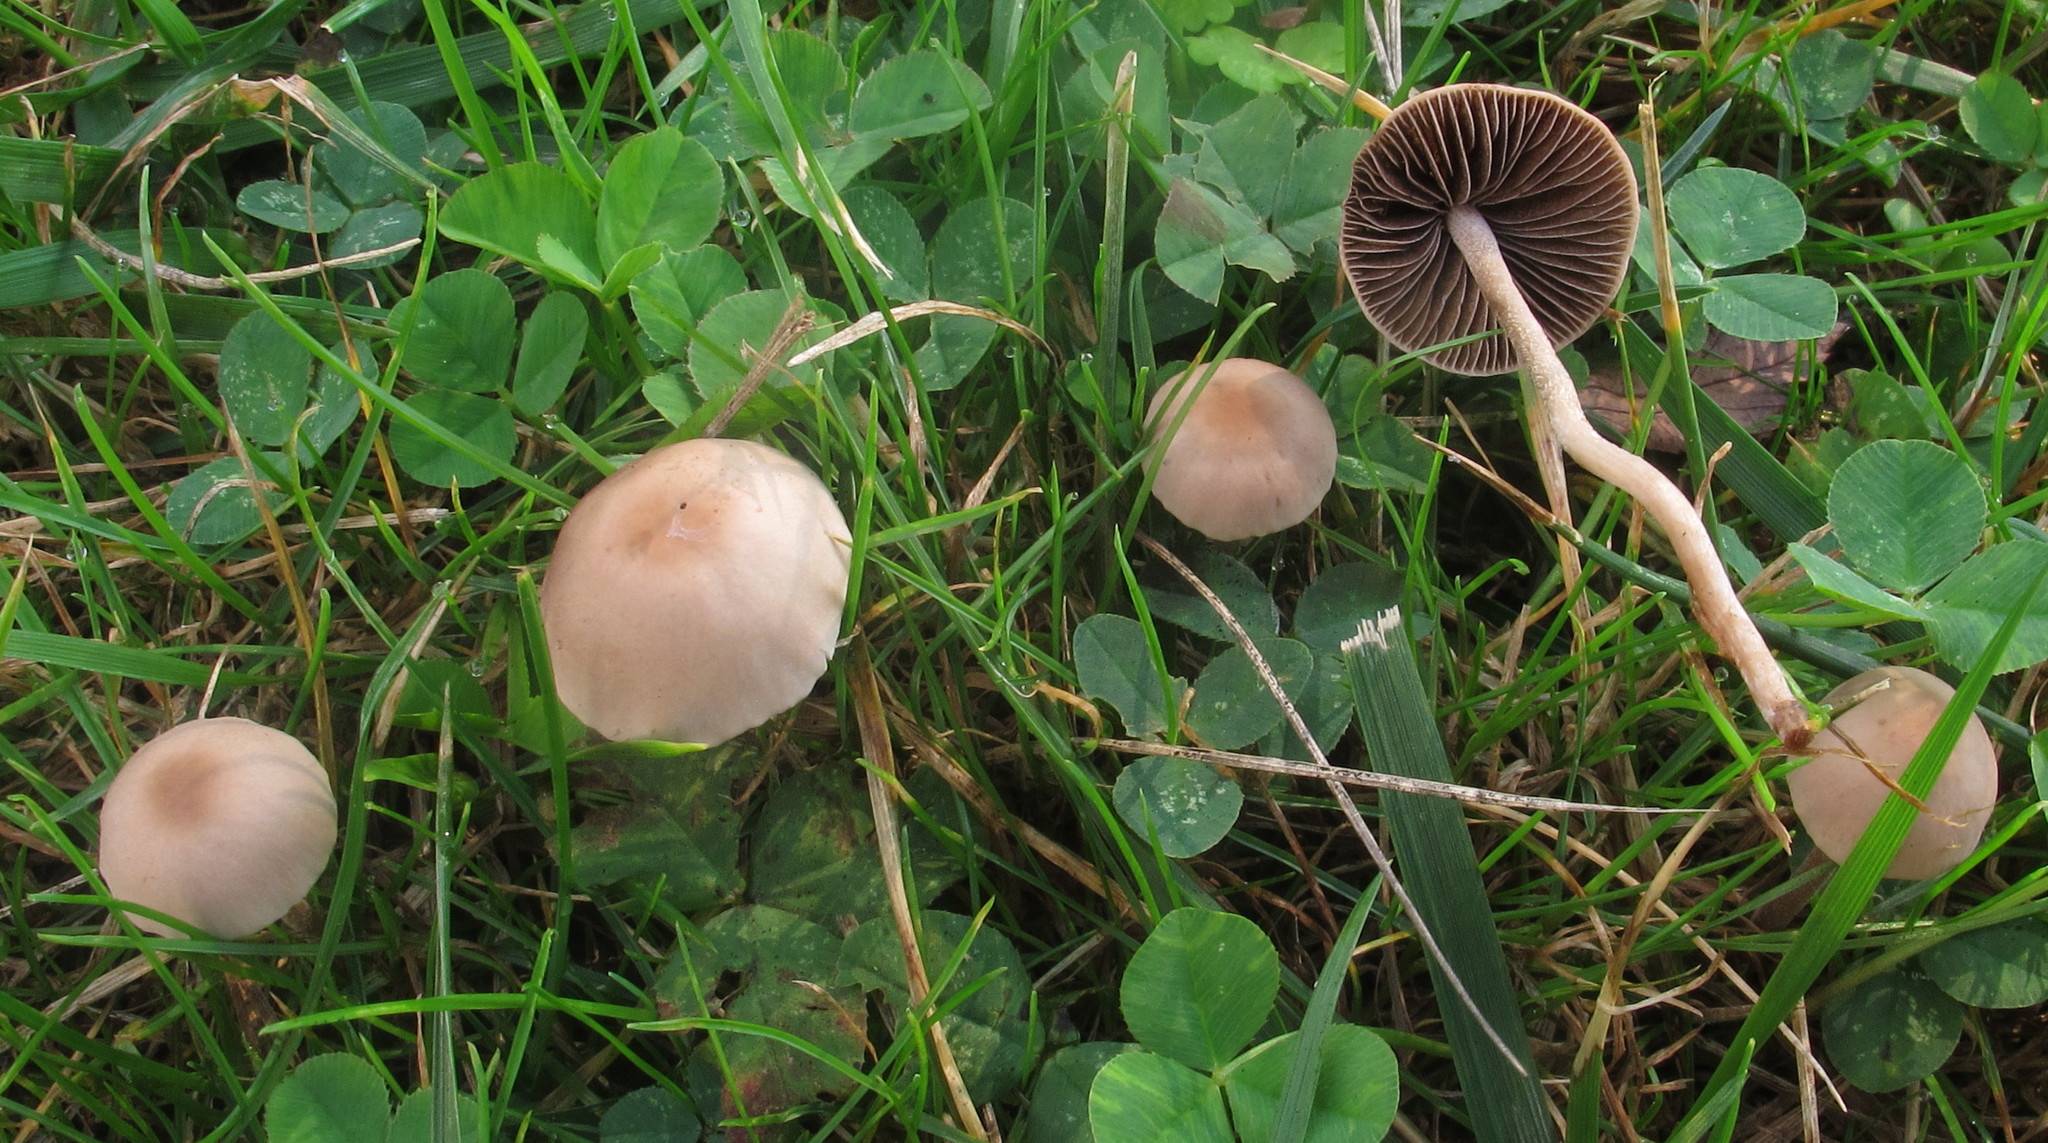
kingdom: Fungi
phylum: Basidiomycota
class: Agaricomycetes
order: Agaricales
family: Bolbitiaceae
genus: Panaeolina
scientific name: Panaeolina foenisecii
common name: Brown hay cap
